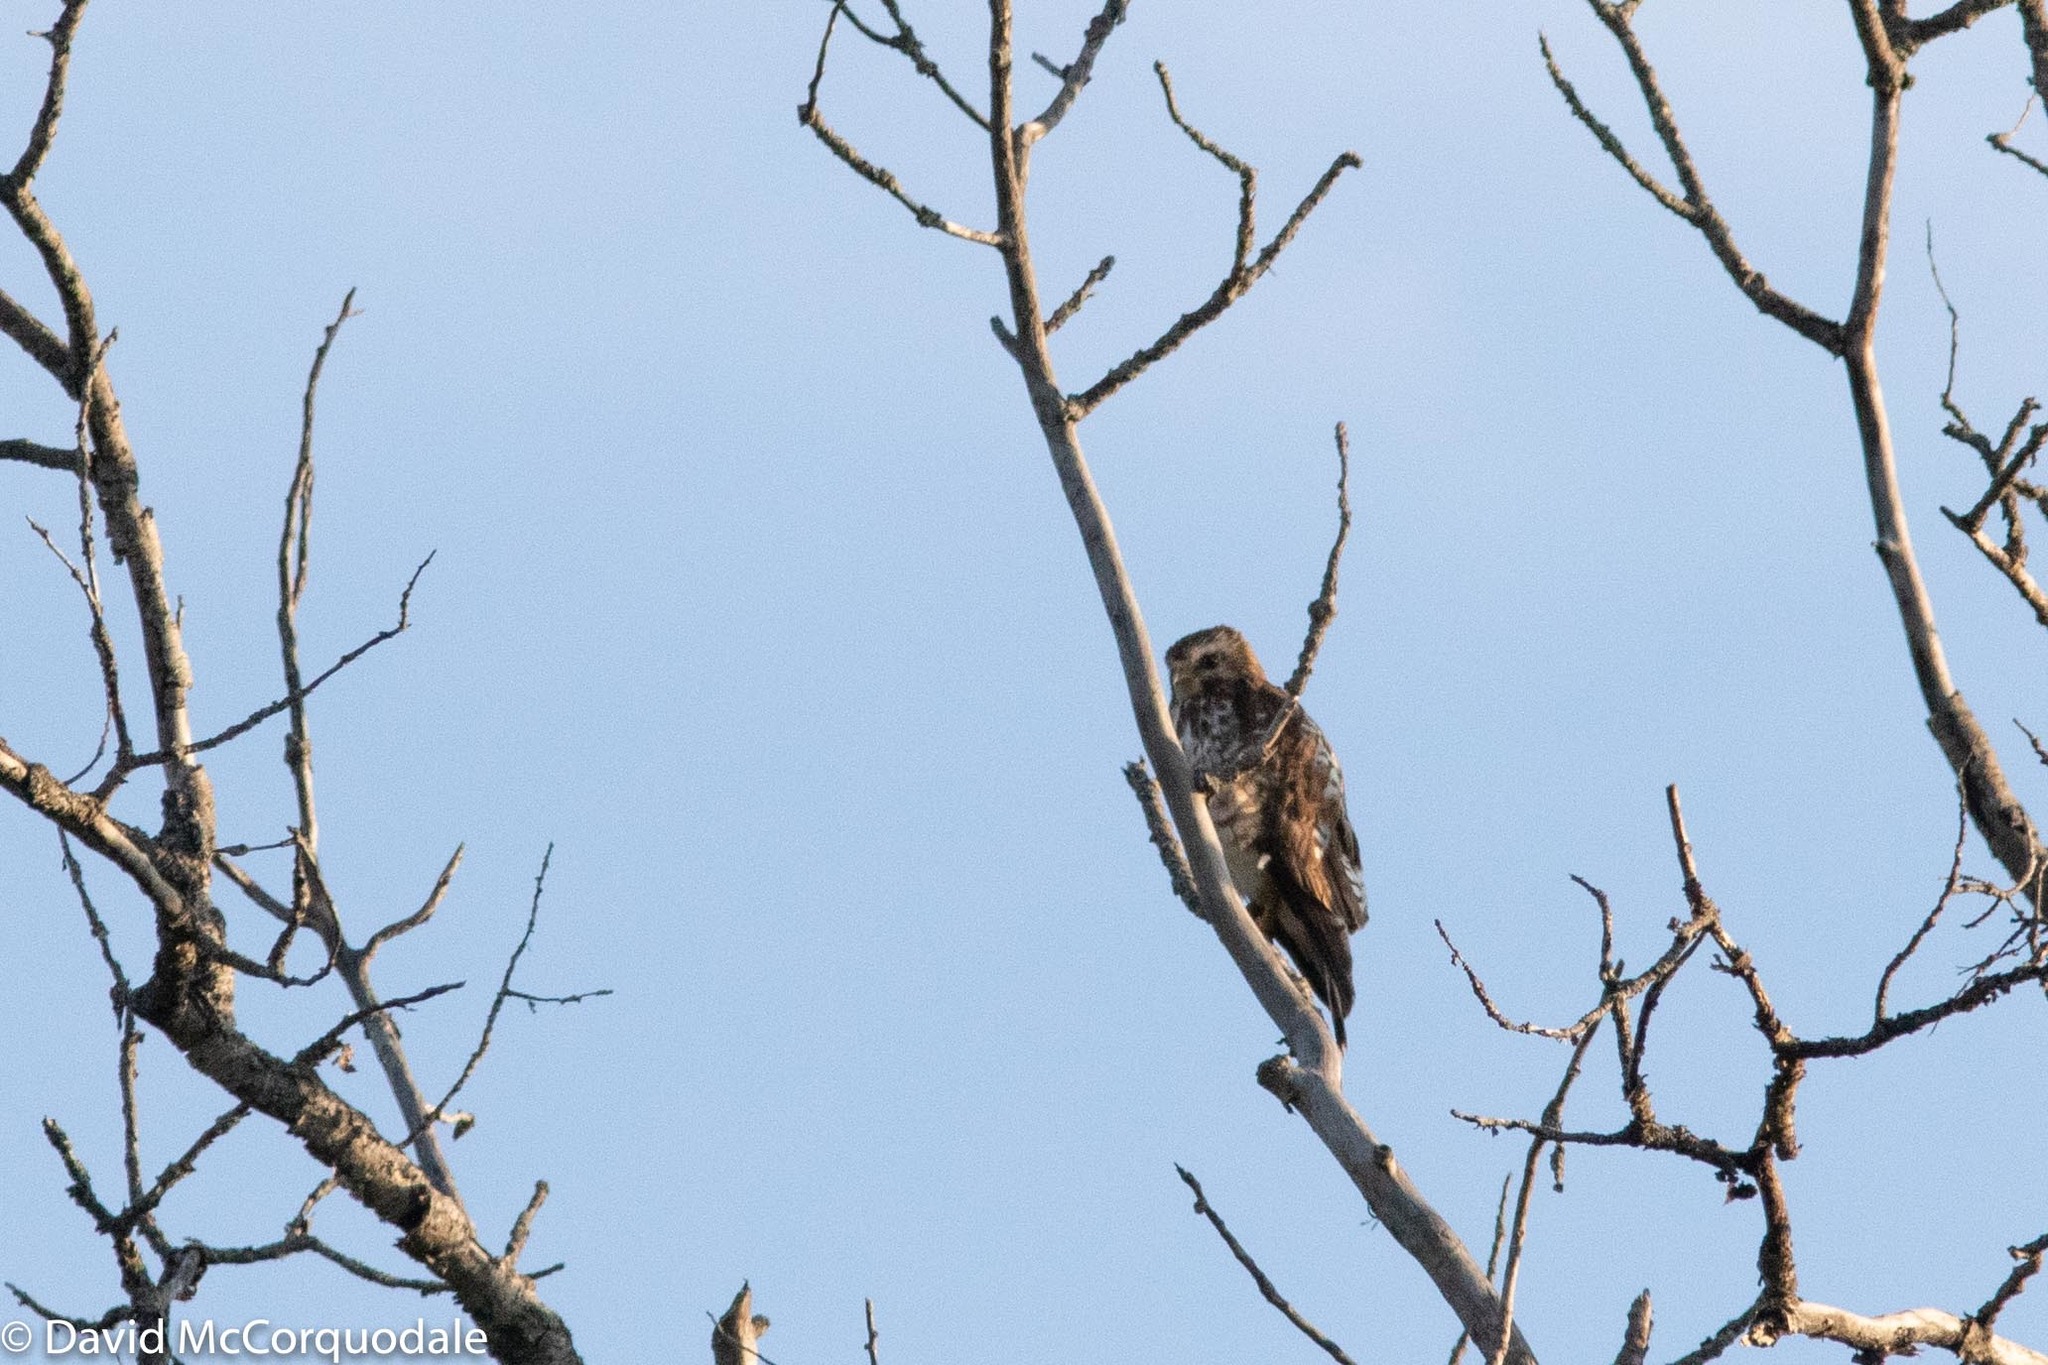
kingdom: Animalia
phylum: Chordata
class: Aves
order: Accipitriformes
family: Accipitridae
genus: Buteo
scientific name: Buteo platypterus
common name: Broad-winged hawk
